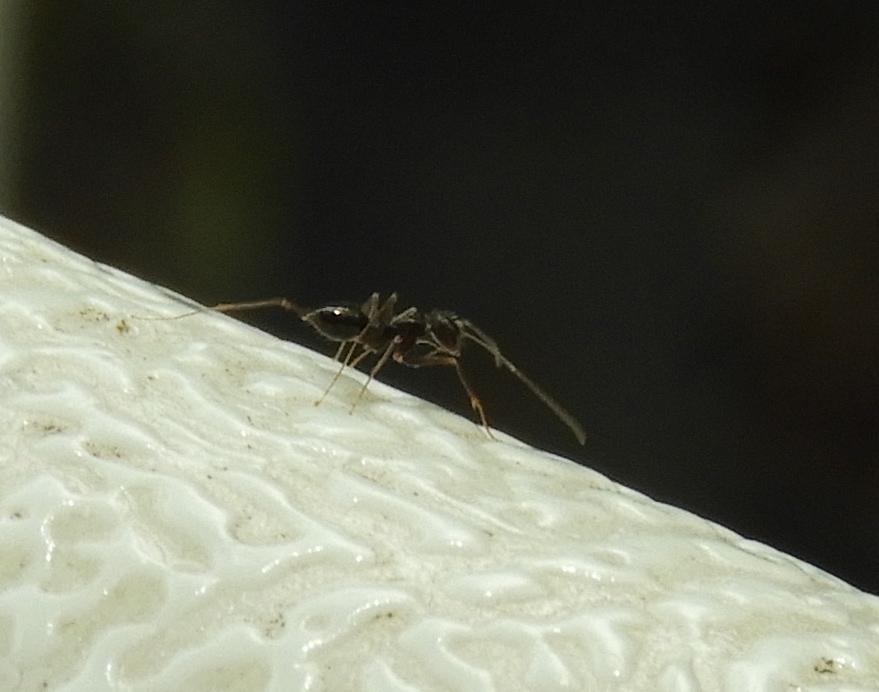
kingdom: Animalia
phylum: Arthropoda
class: Insecta
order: Hymenoptera
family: Formicidae
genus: Paratrechina
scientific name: Paratrechina longicornis
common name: Longhorned crazy ant
